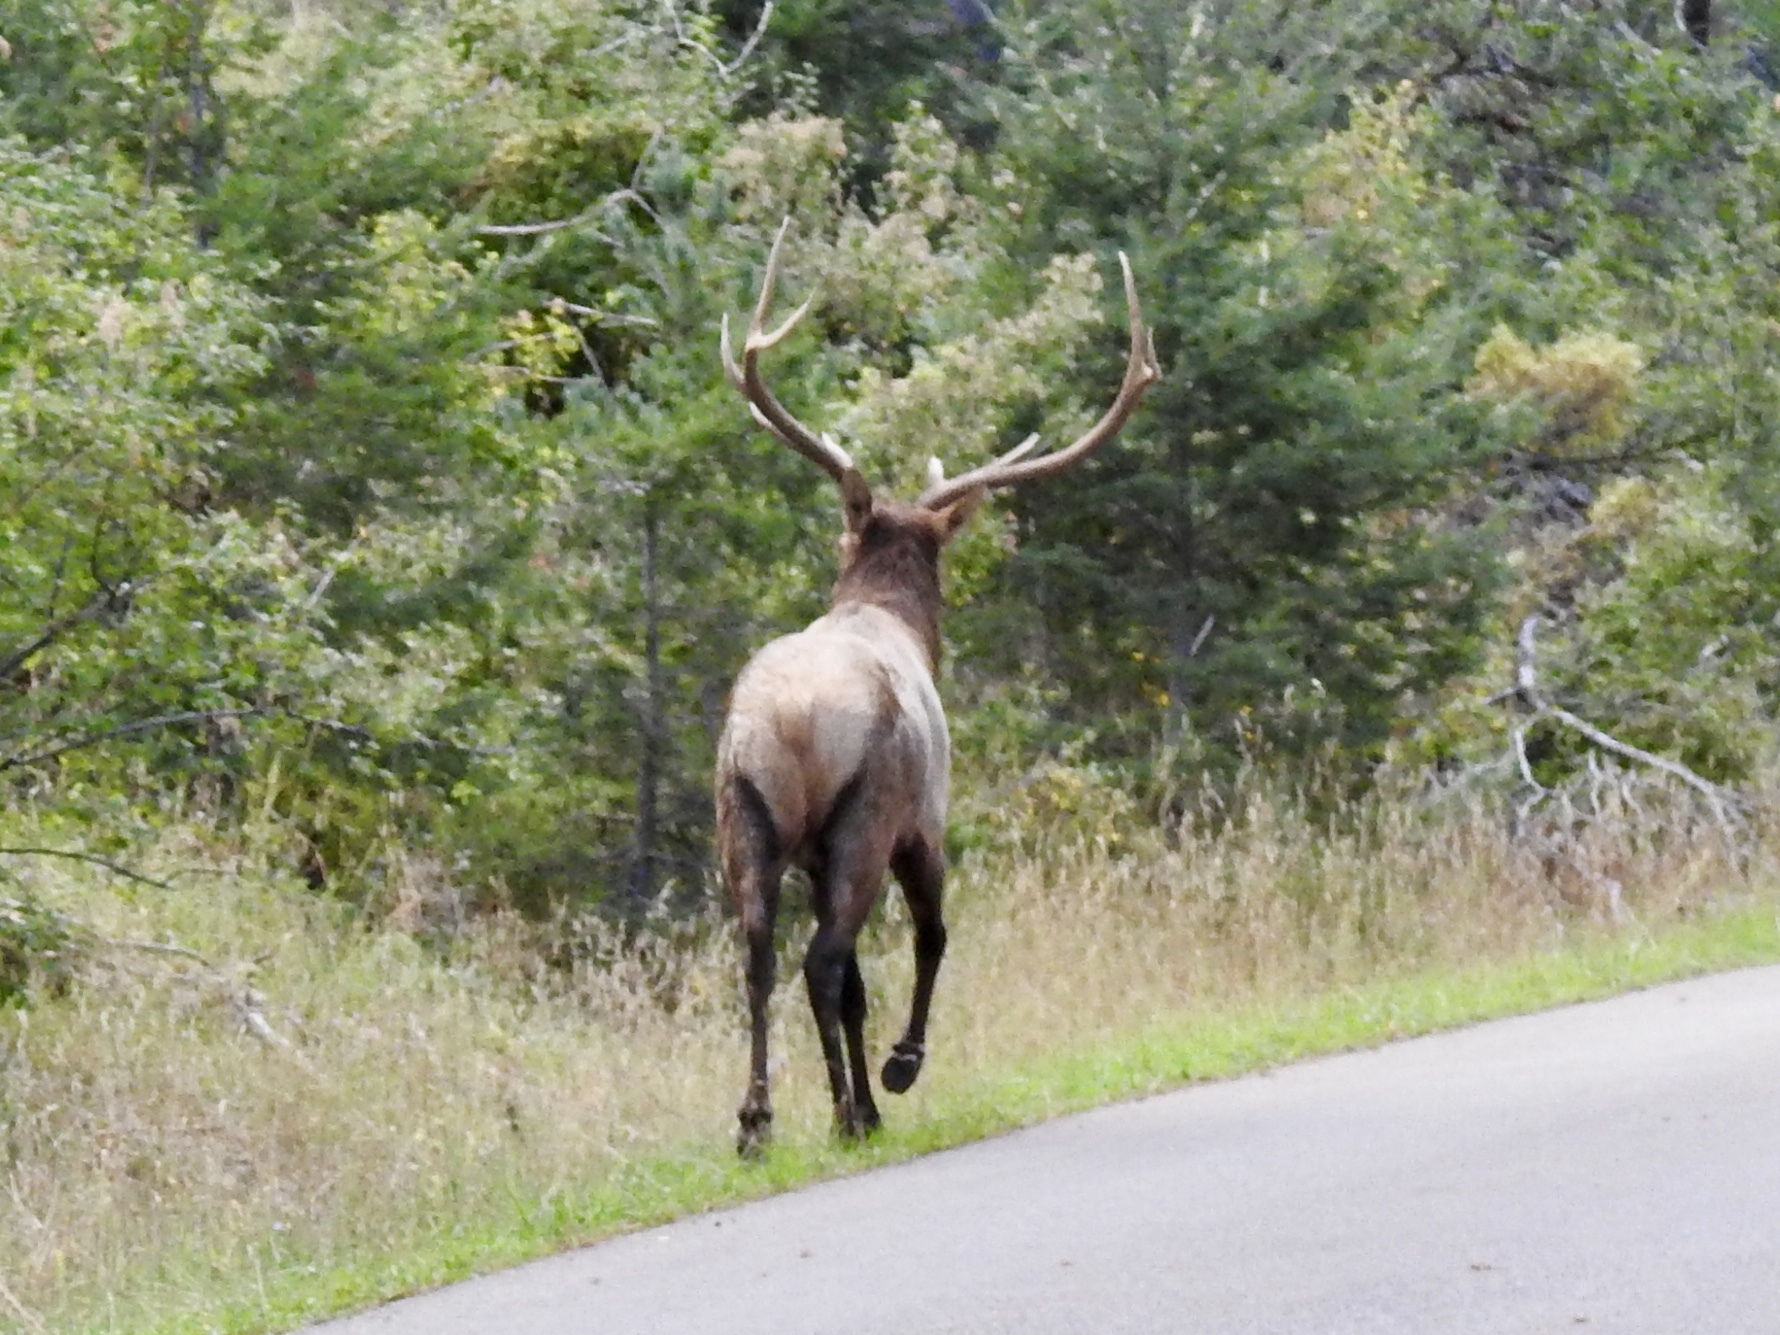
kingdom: Animalia
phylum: Chordata
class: Mammalia
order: Artiodactyla
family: Cervidae
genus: Cervus
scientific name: Cervus elaphus
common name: Red deer
